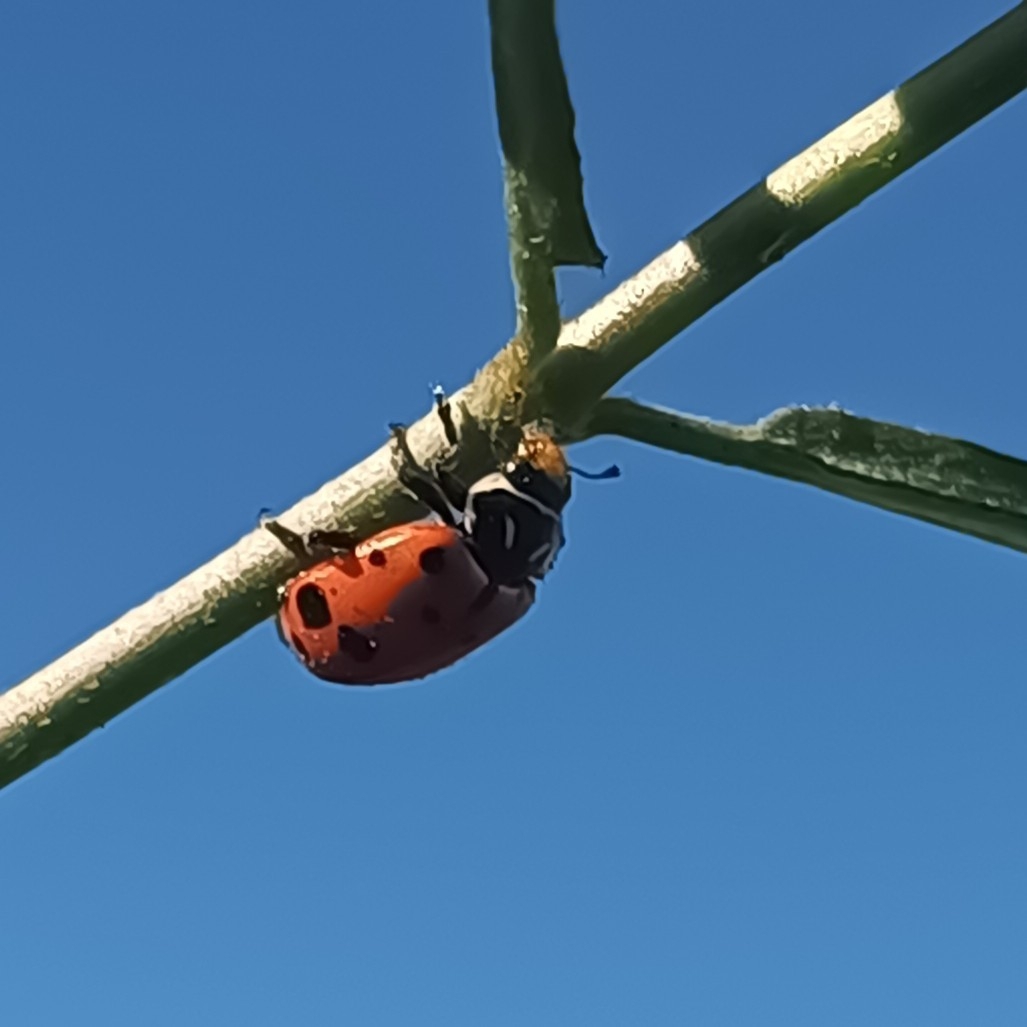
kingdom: Animalia
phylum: Arthropoda
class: Insecta
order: Coleoptera
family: Coccinellidae
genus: Hippodamia
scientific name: Hippodamia convergens
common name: Convergent lady beetle
